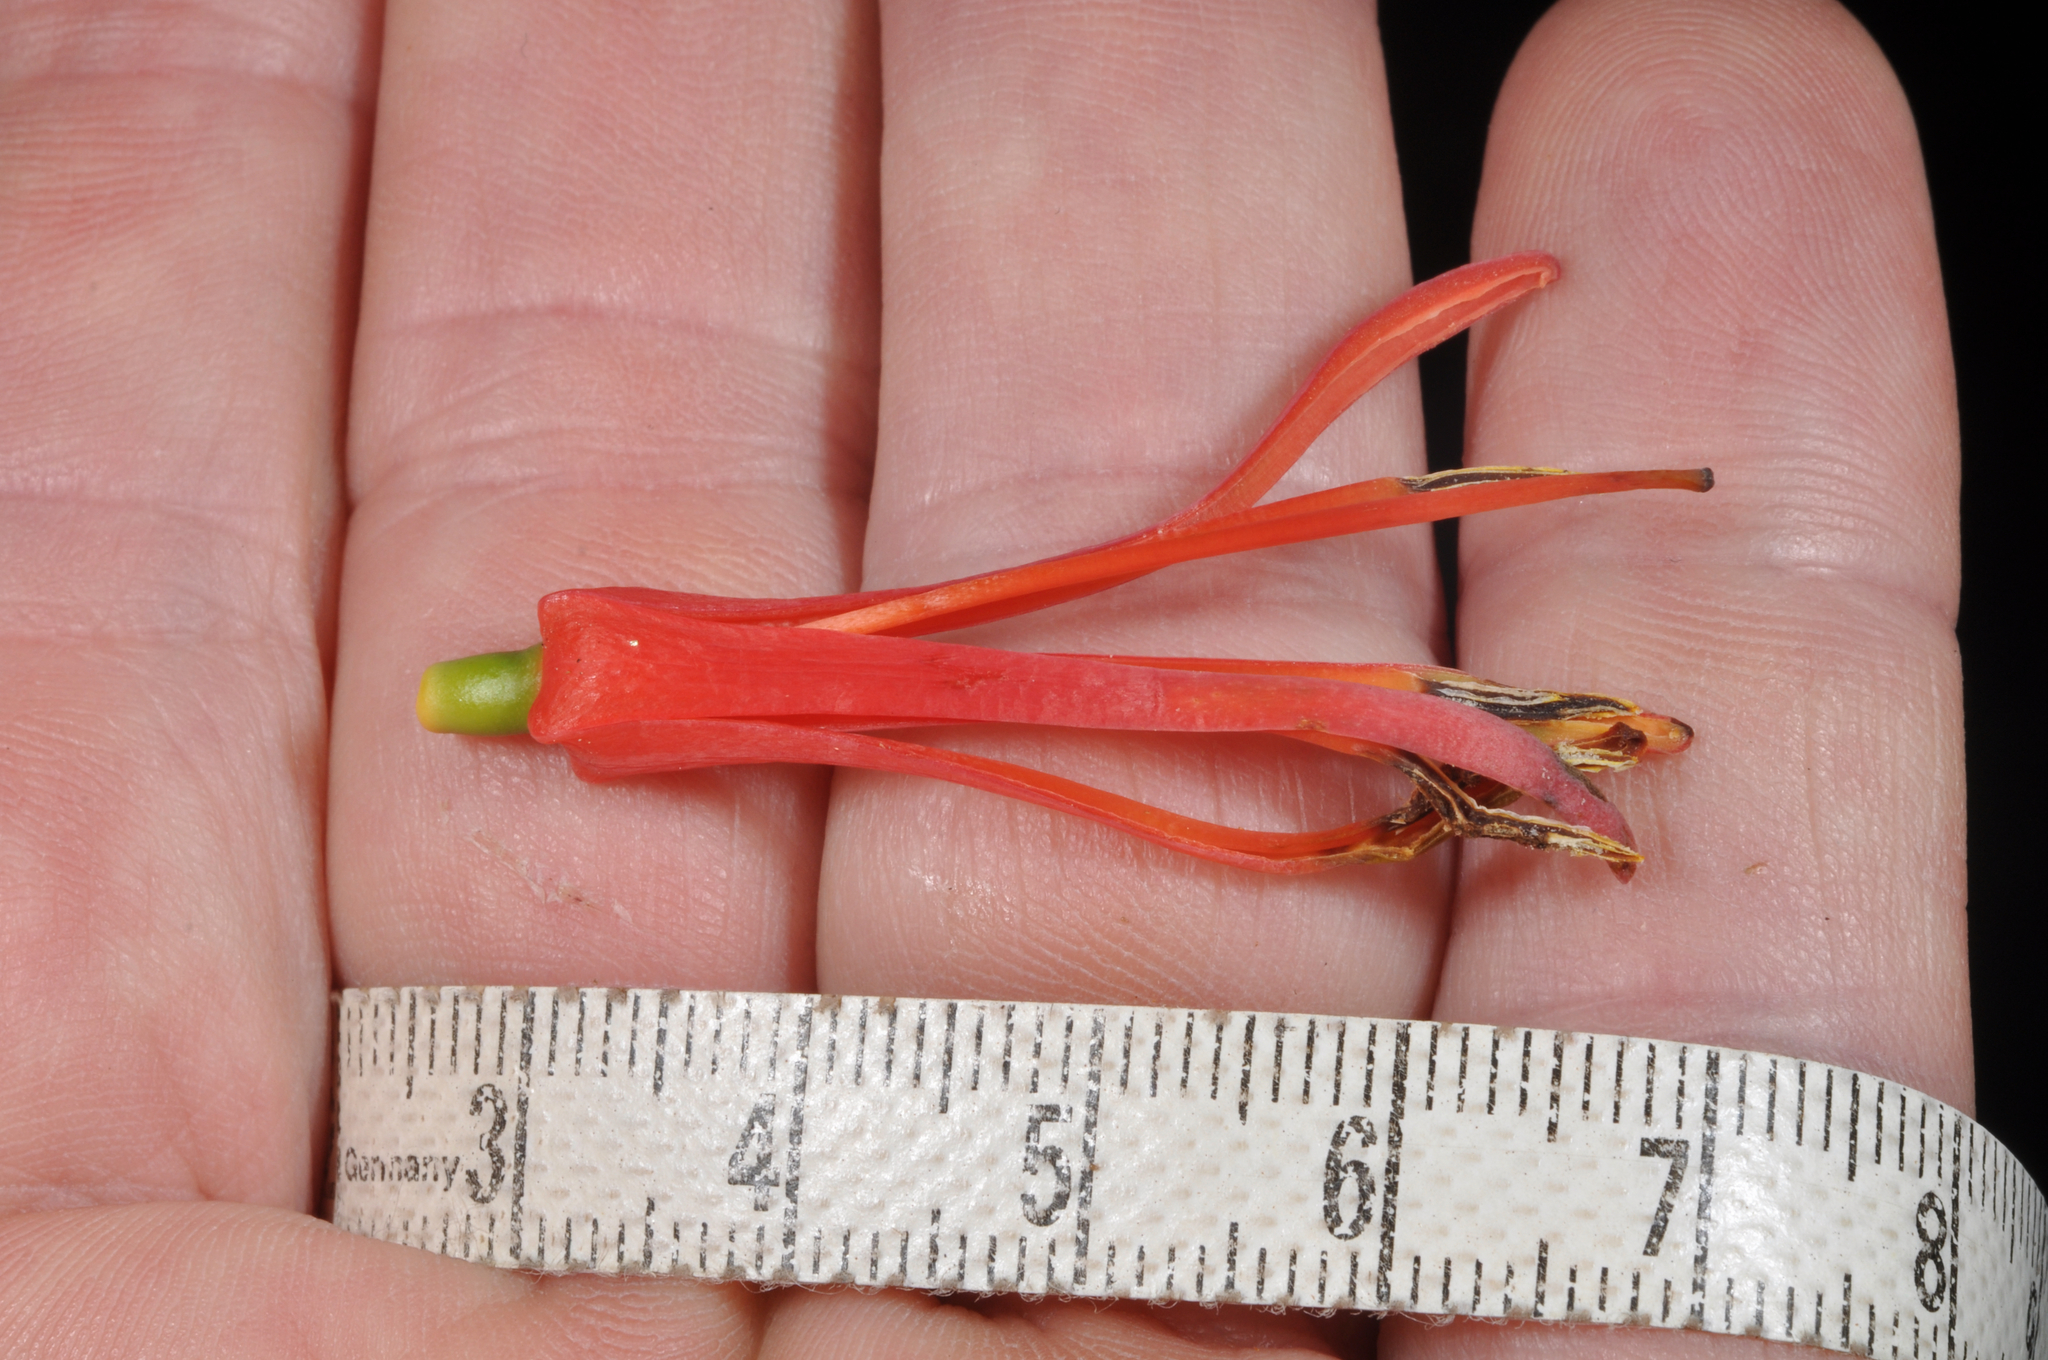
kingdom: Plantae
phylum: Tracheophyta
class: Magnoliopsida
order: Santalales
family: Loranthaceae
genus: Peraxilla
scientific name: Peraxilla colensoi
